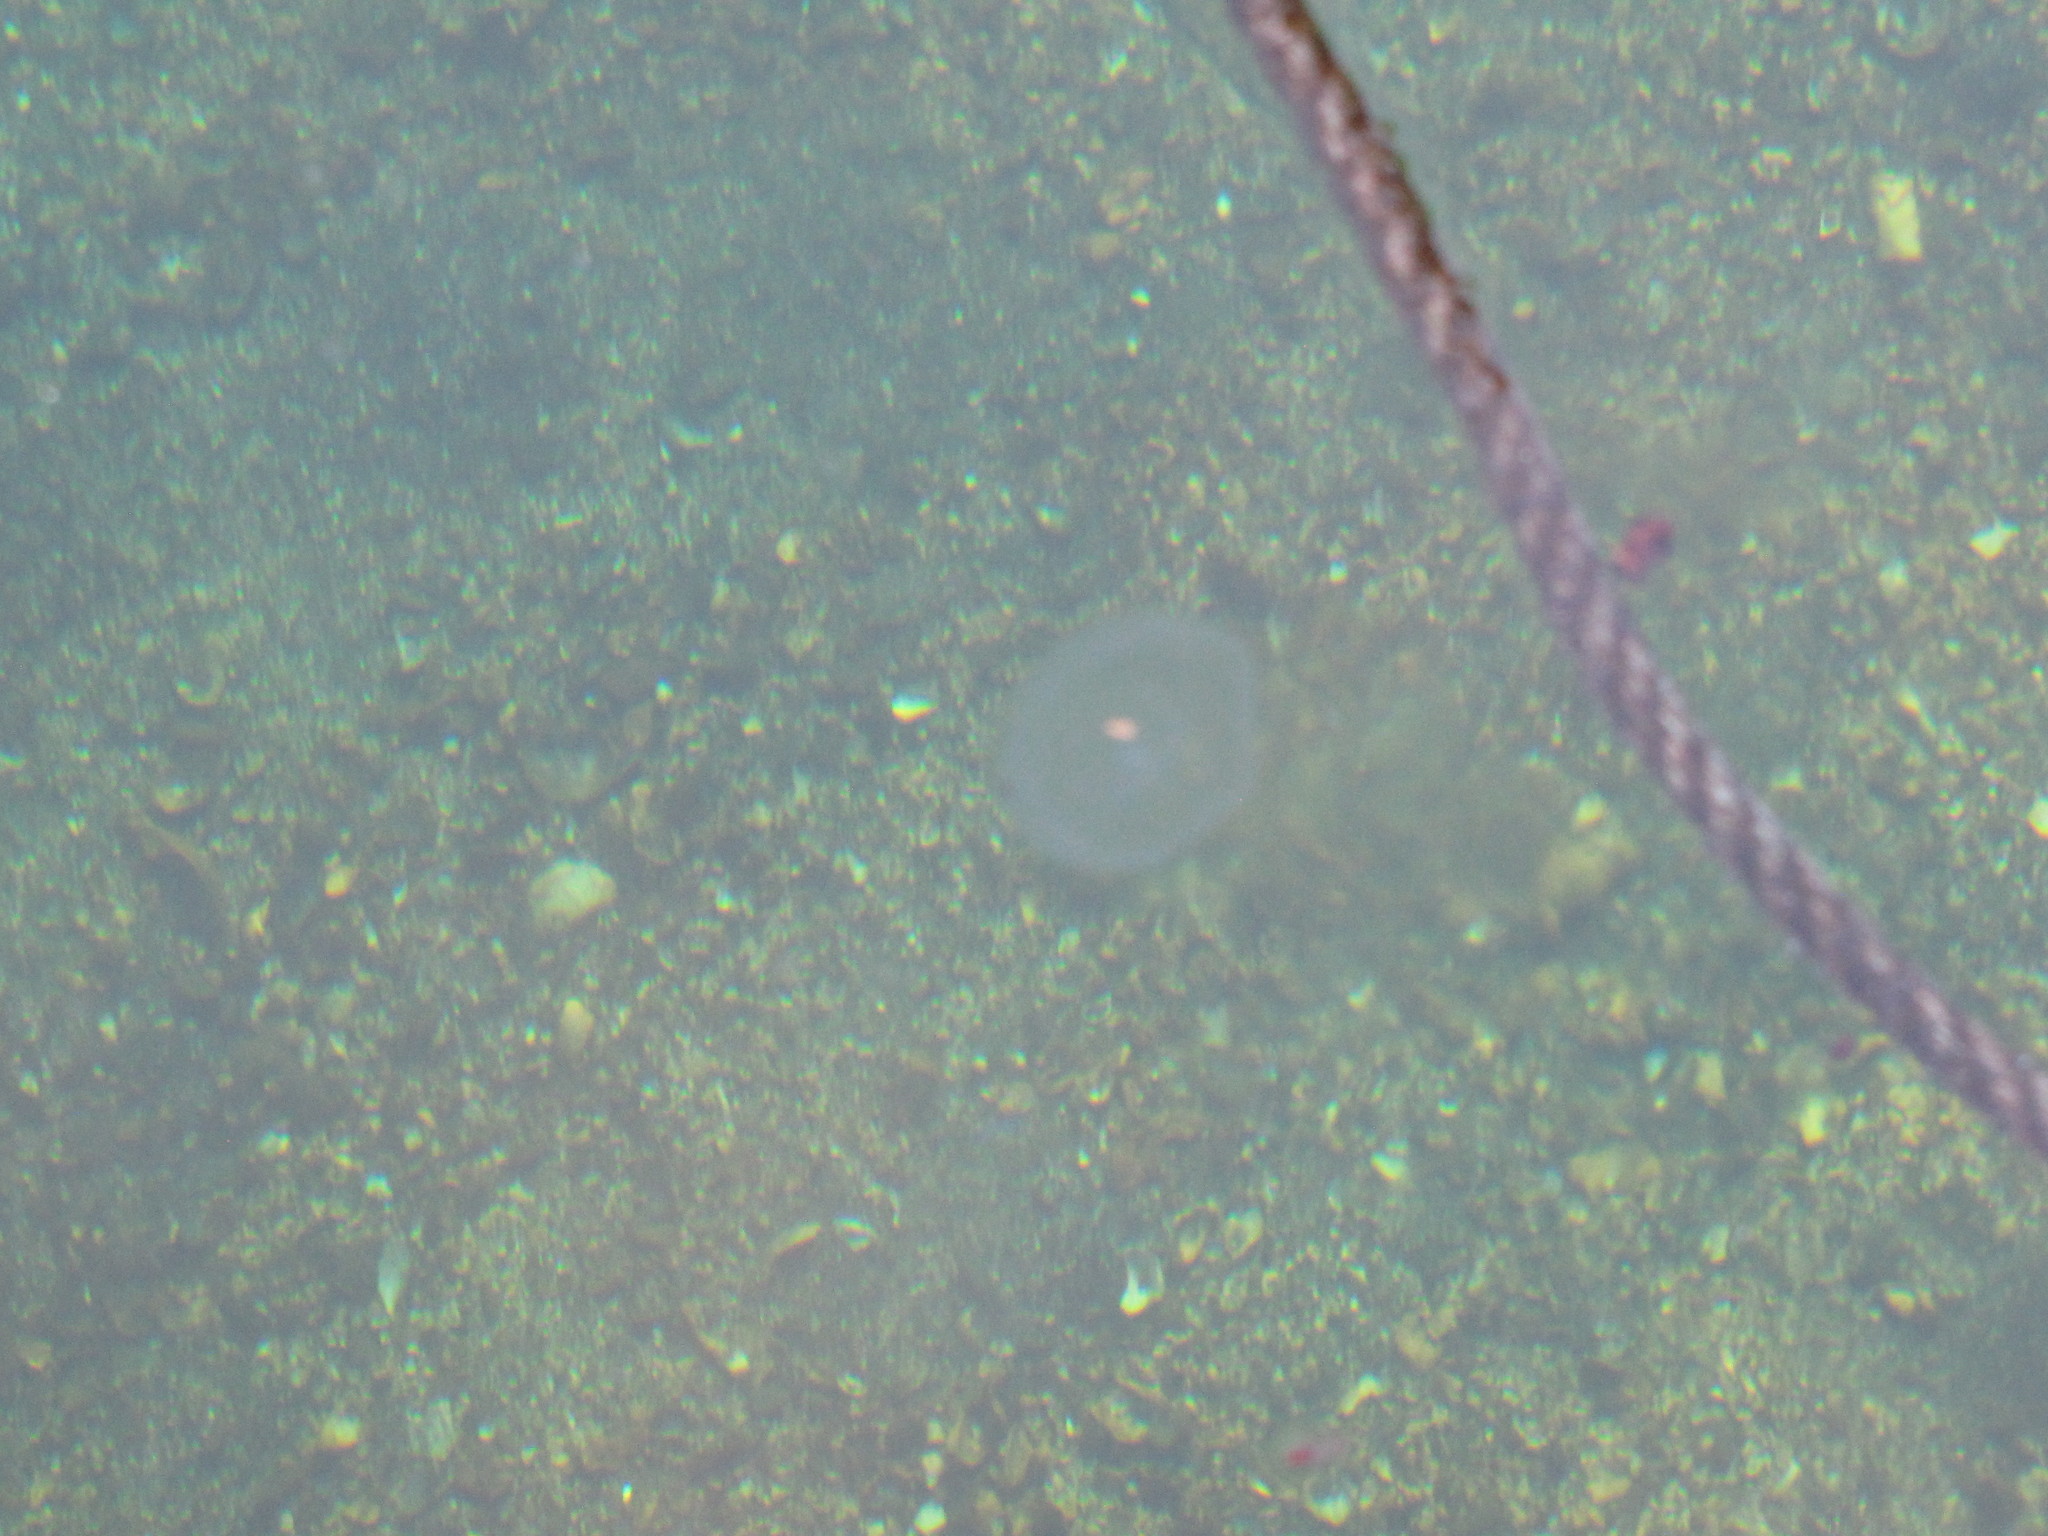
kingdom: Animalia
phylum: Cnidaria
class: Scyphozoa
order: Semaeostomeae
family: Ulmaridae
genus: Aurelia
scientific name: Aurelia labiata
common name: Pacific moon jelly
